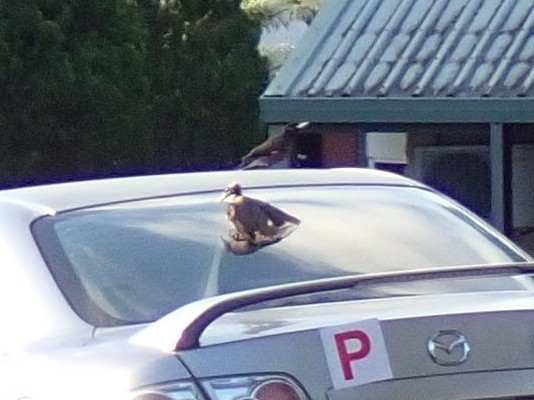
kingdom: Animalia
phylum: Chordata
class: Aves
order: Passeriformes
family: Meliphagidae
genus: Philemon
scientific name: Philemon yorki
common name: Hornbill friarbird
